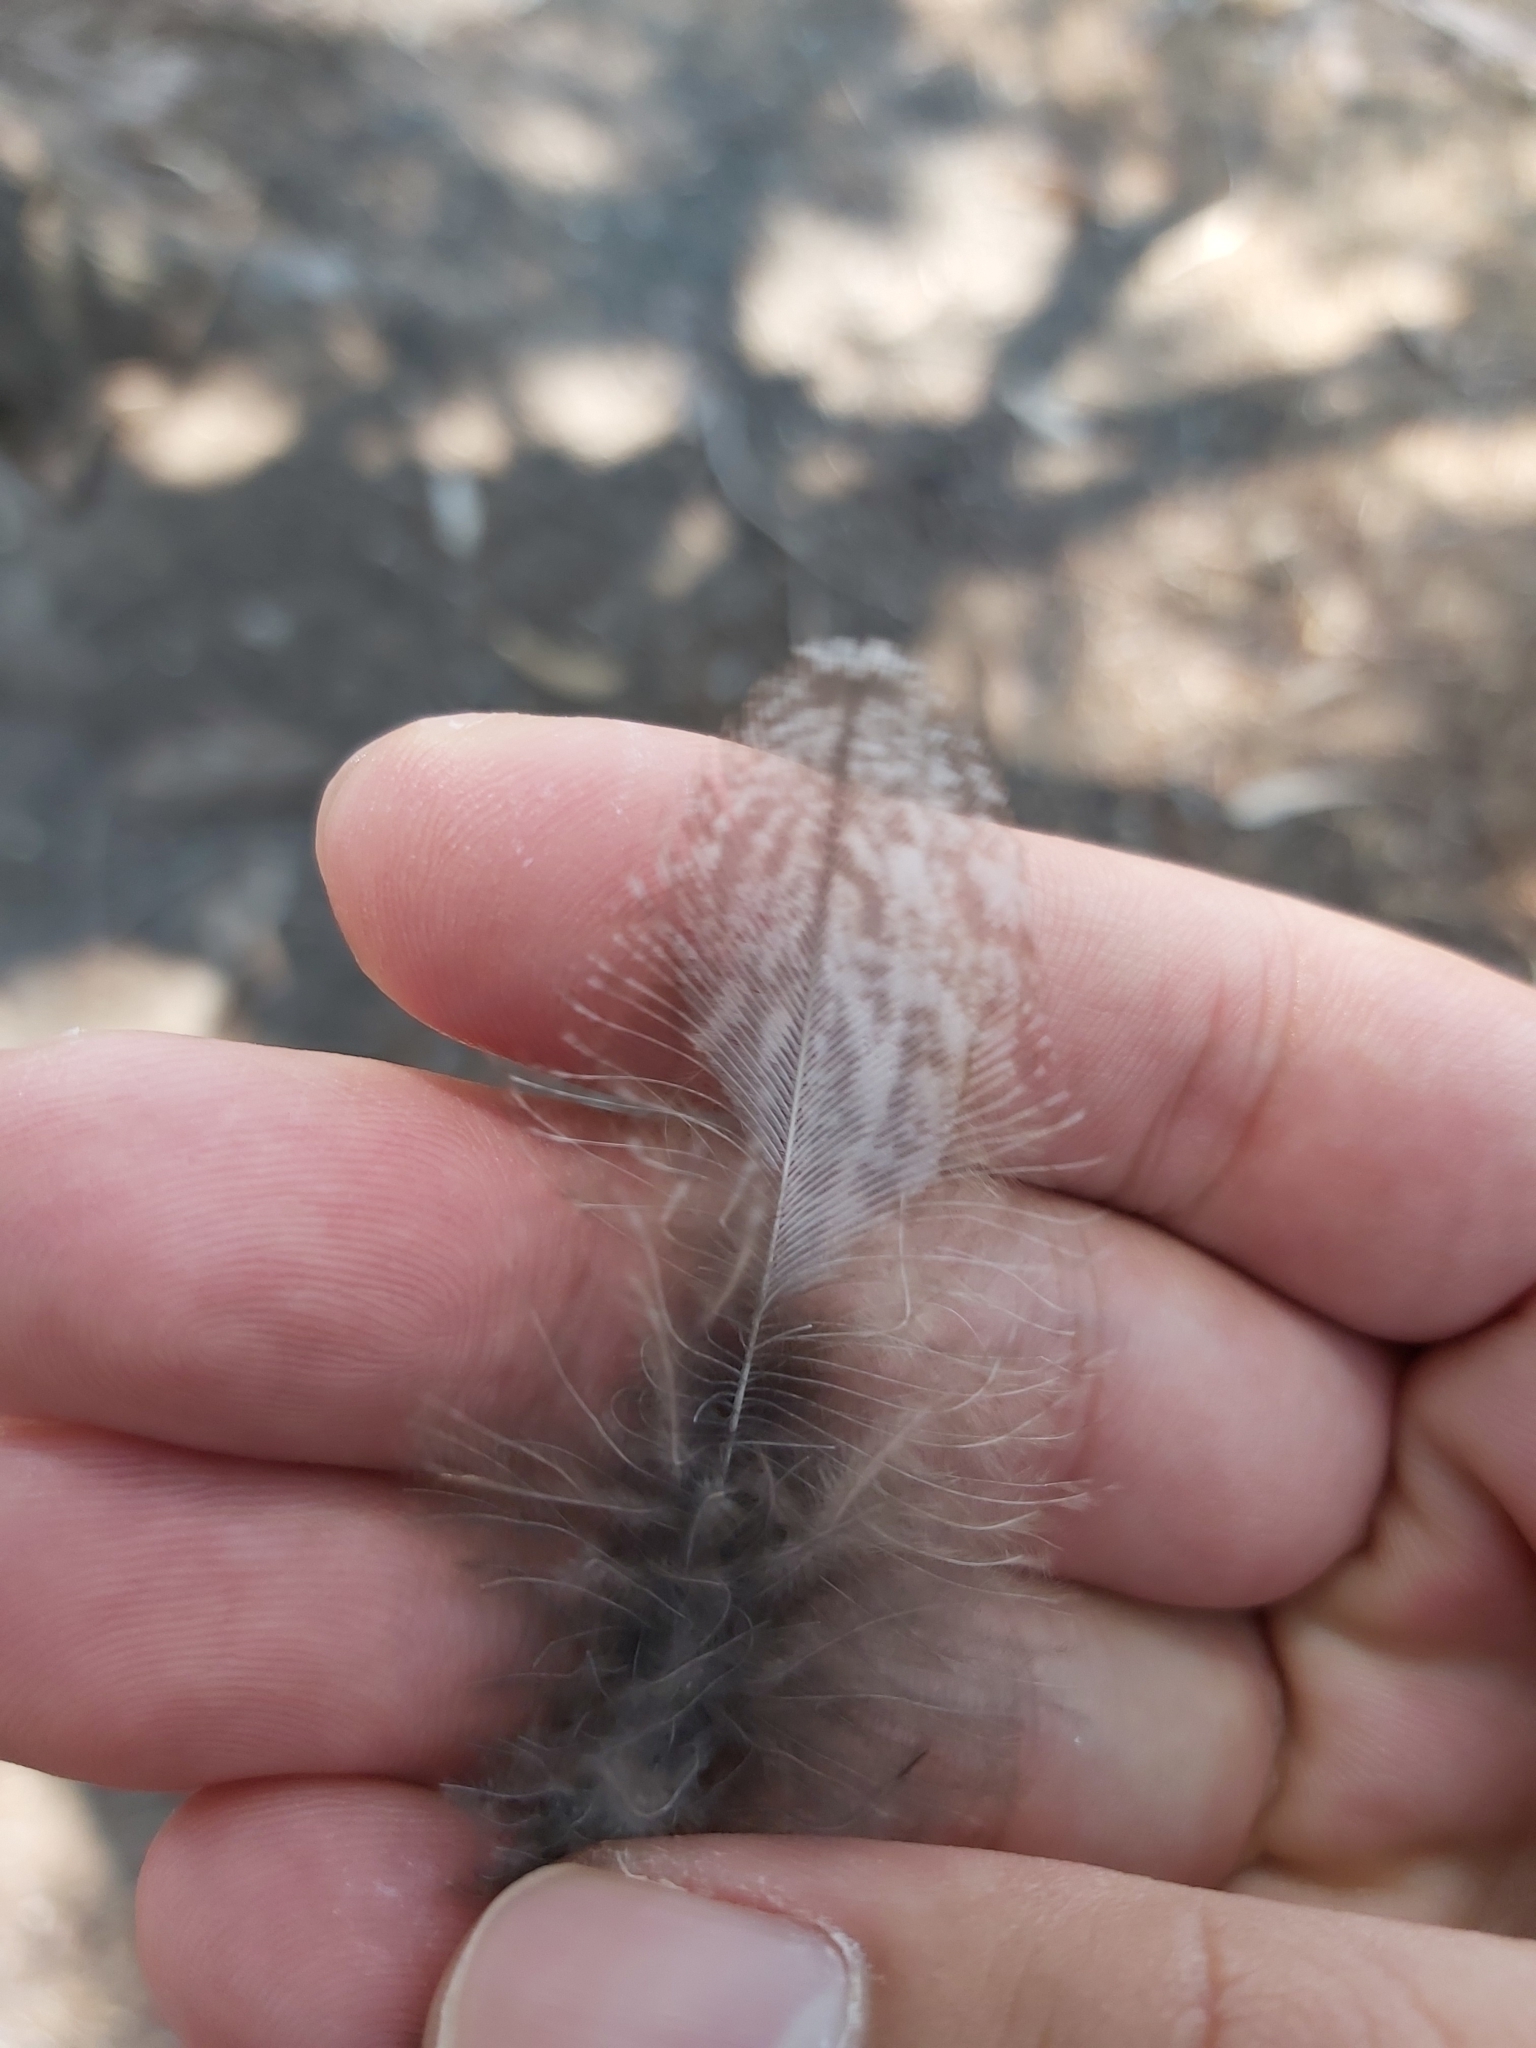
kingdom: Animalia
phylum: Chordata
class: Aves
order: Caprimulgiformes
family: Podargidae
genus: Podargus
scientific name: Podargus strigoides
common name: Tawny frogmouth
